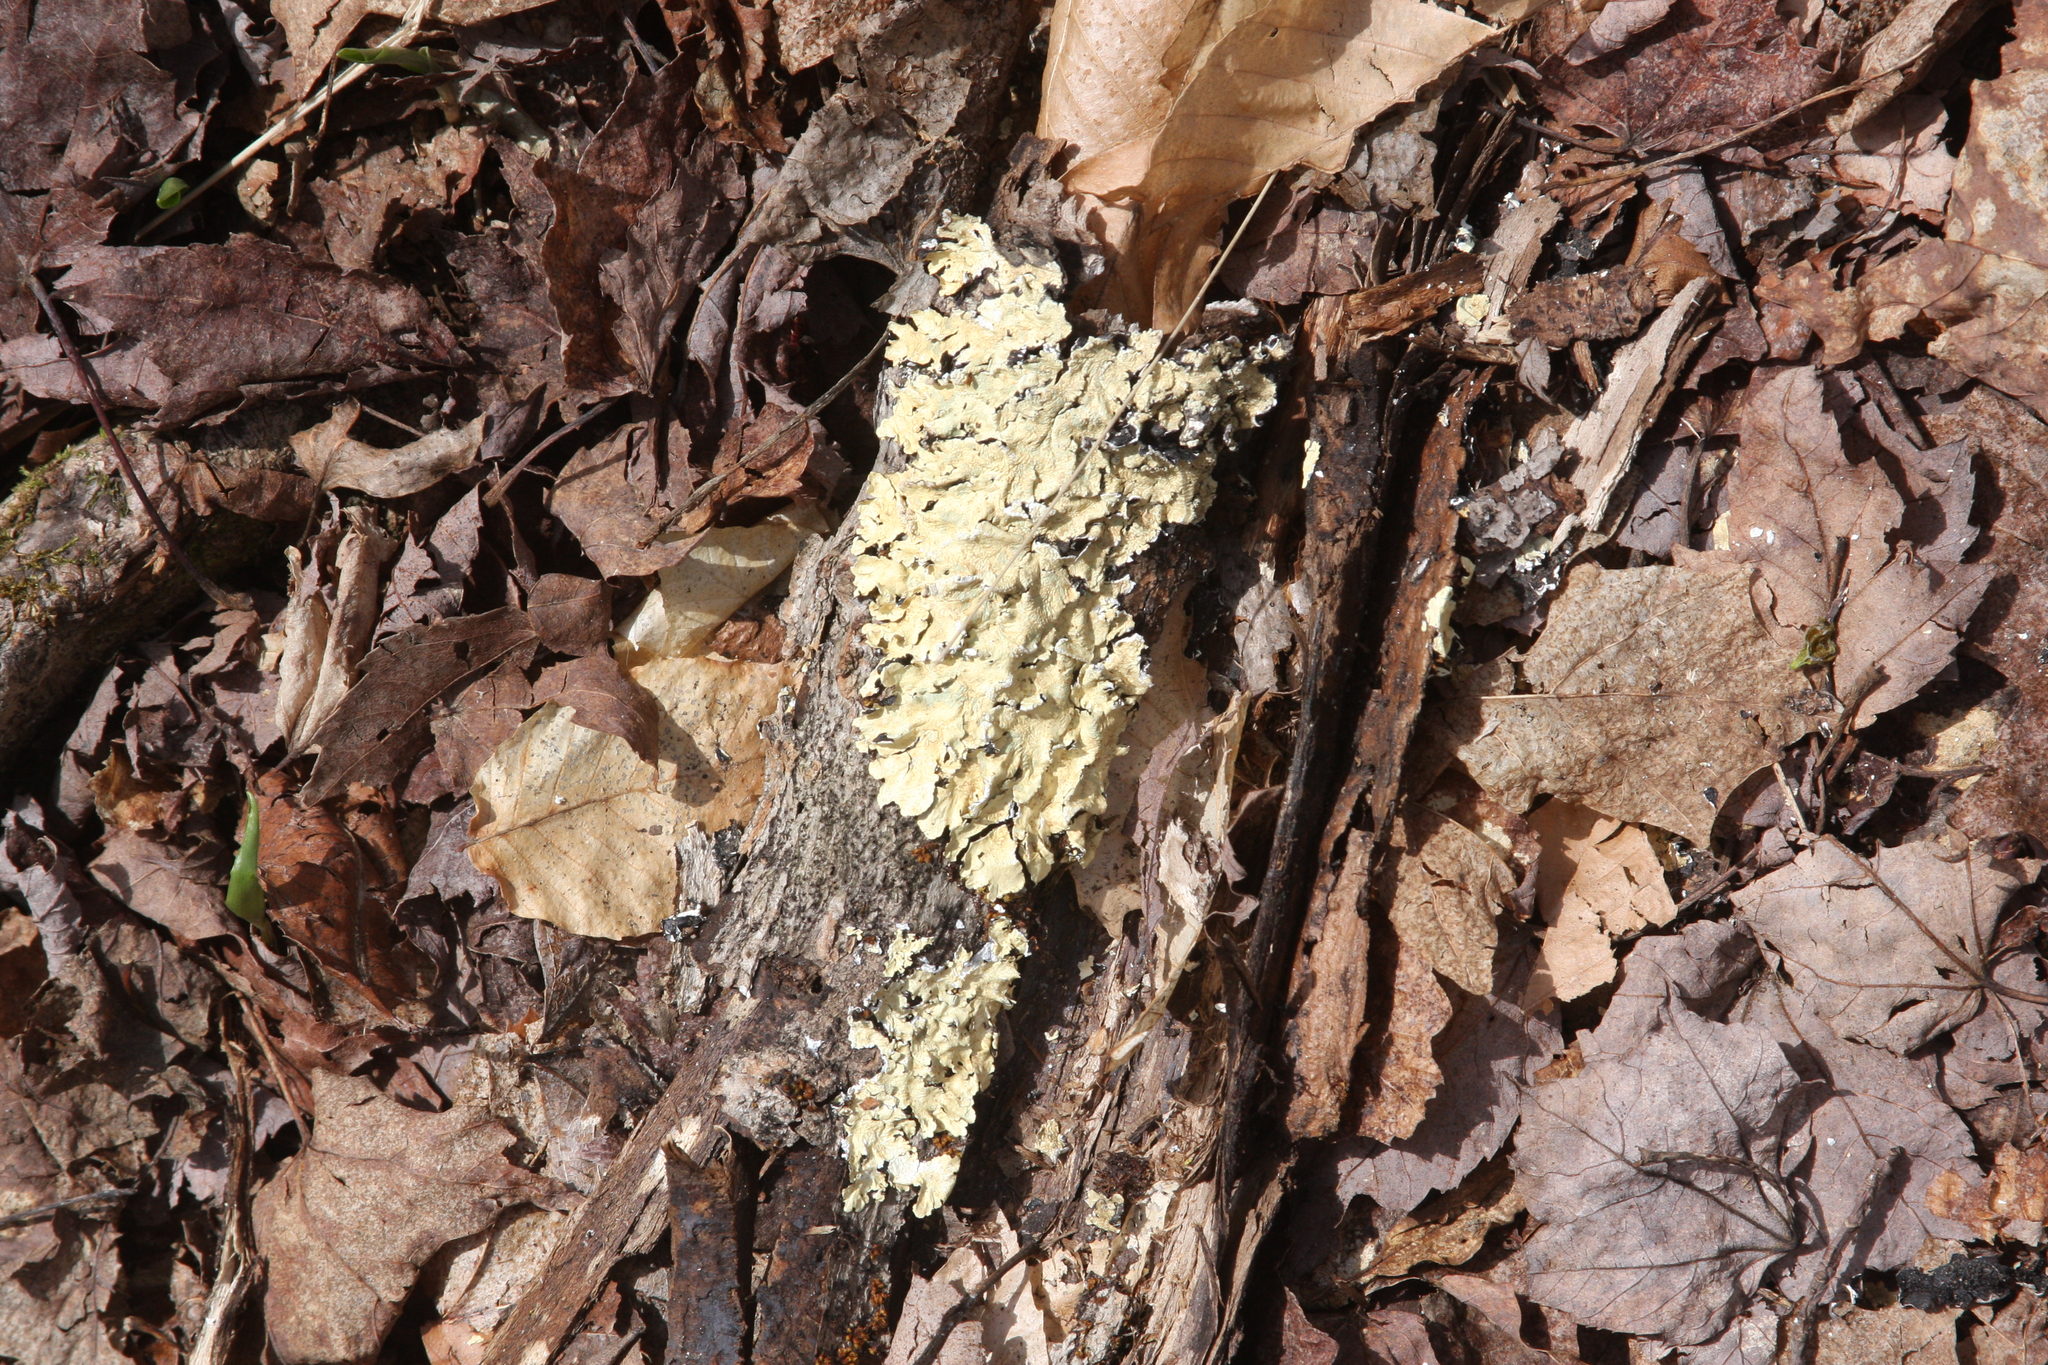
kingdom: Fungi
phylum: Ascomycota
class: Lecanoromycetes
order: Lecanorales
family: Parmeliaceae
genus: Flavoparmelia
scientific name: Flavoparmelia caperata
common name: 40-mile per hour lichen
